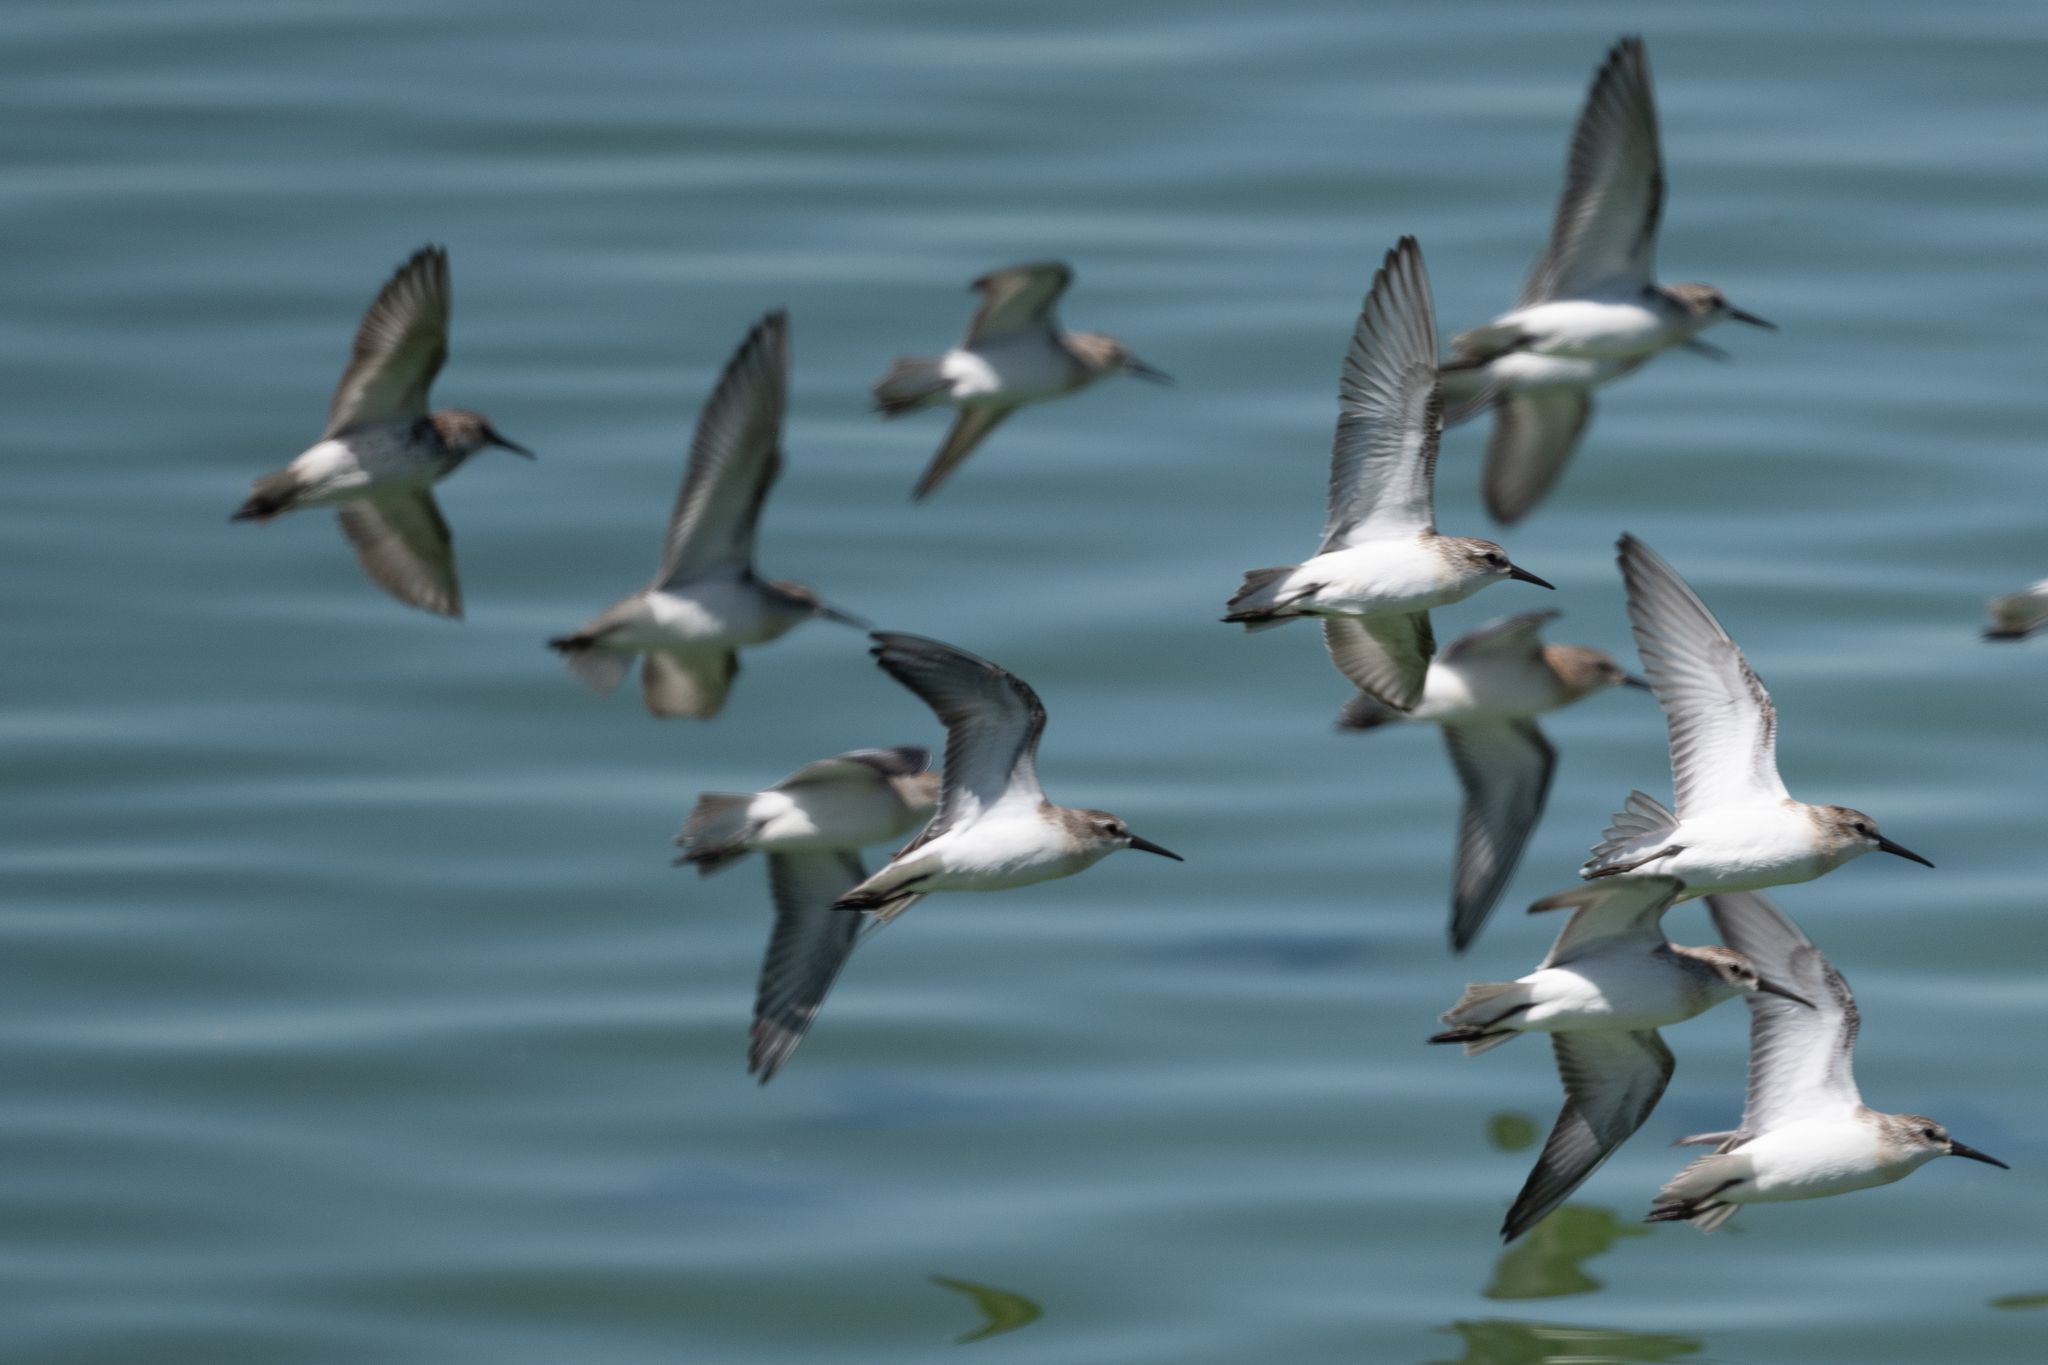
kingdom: Animalia
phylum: Chordata
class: Aves
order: Charadriiformes
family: Scolopacidae
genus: Calidris
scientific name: Calidris mauri
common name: Western sandpiper
